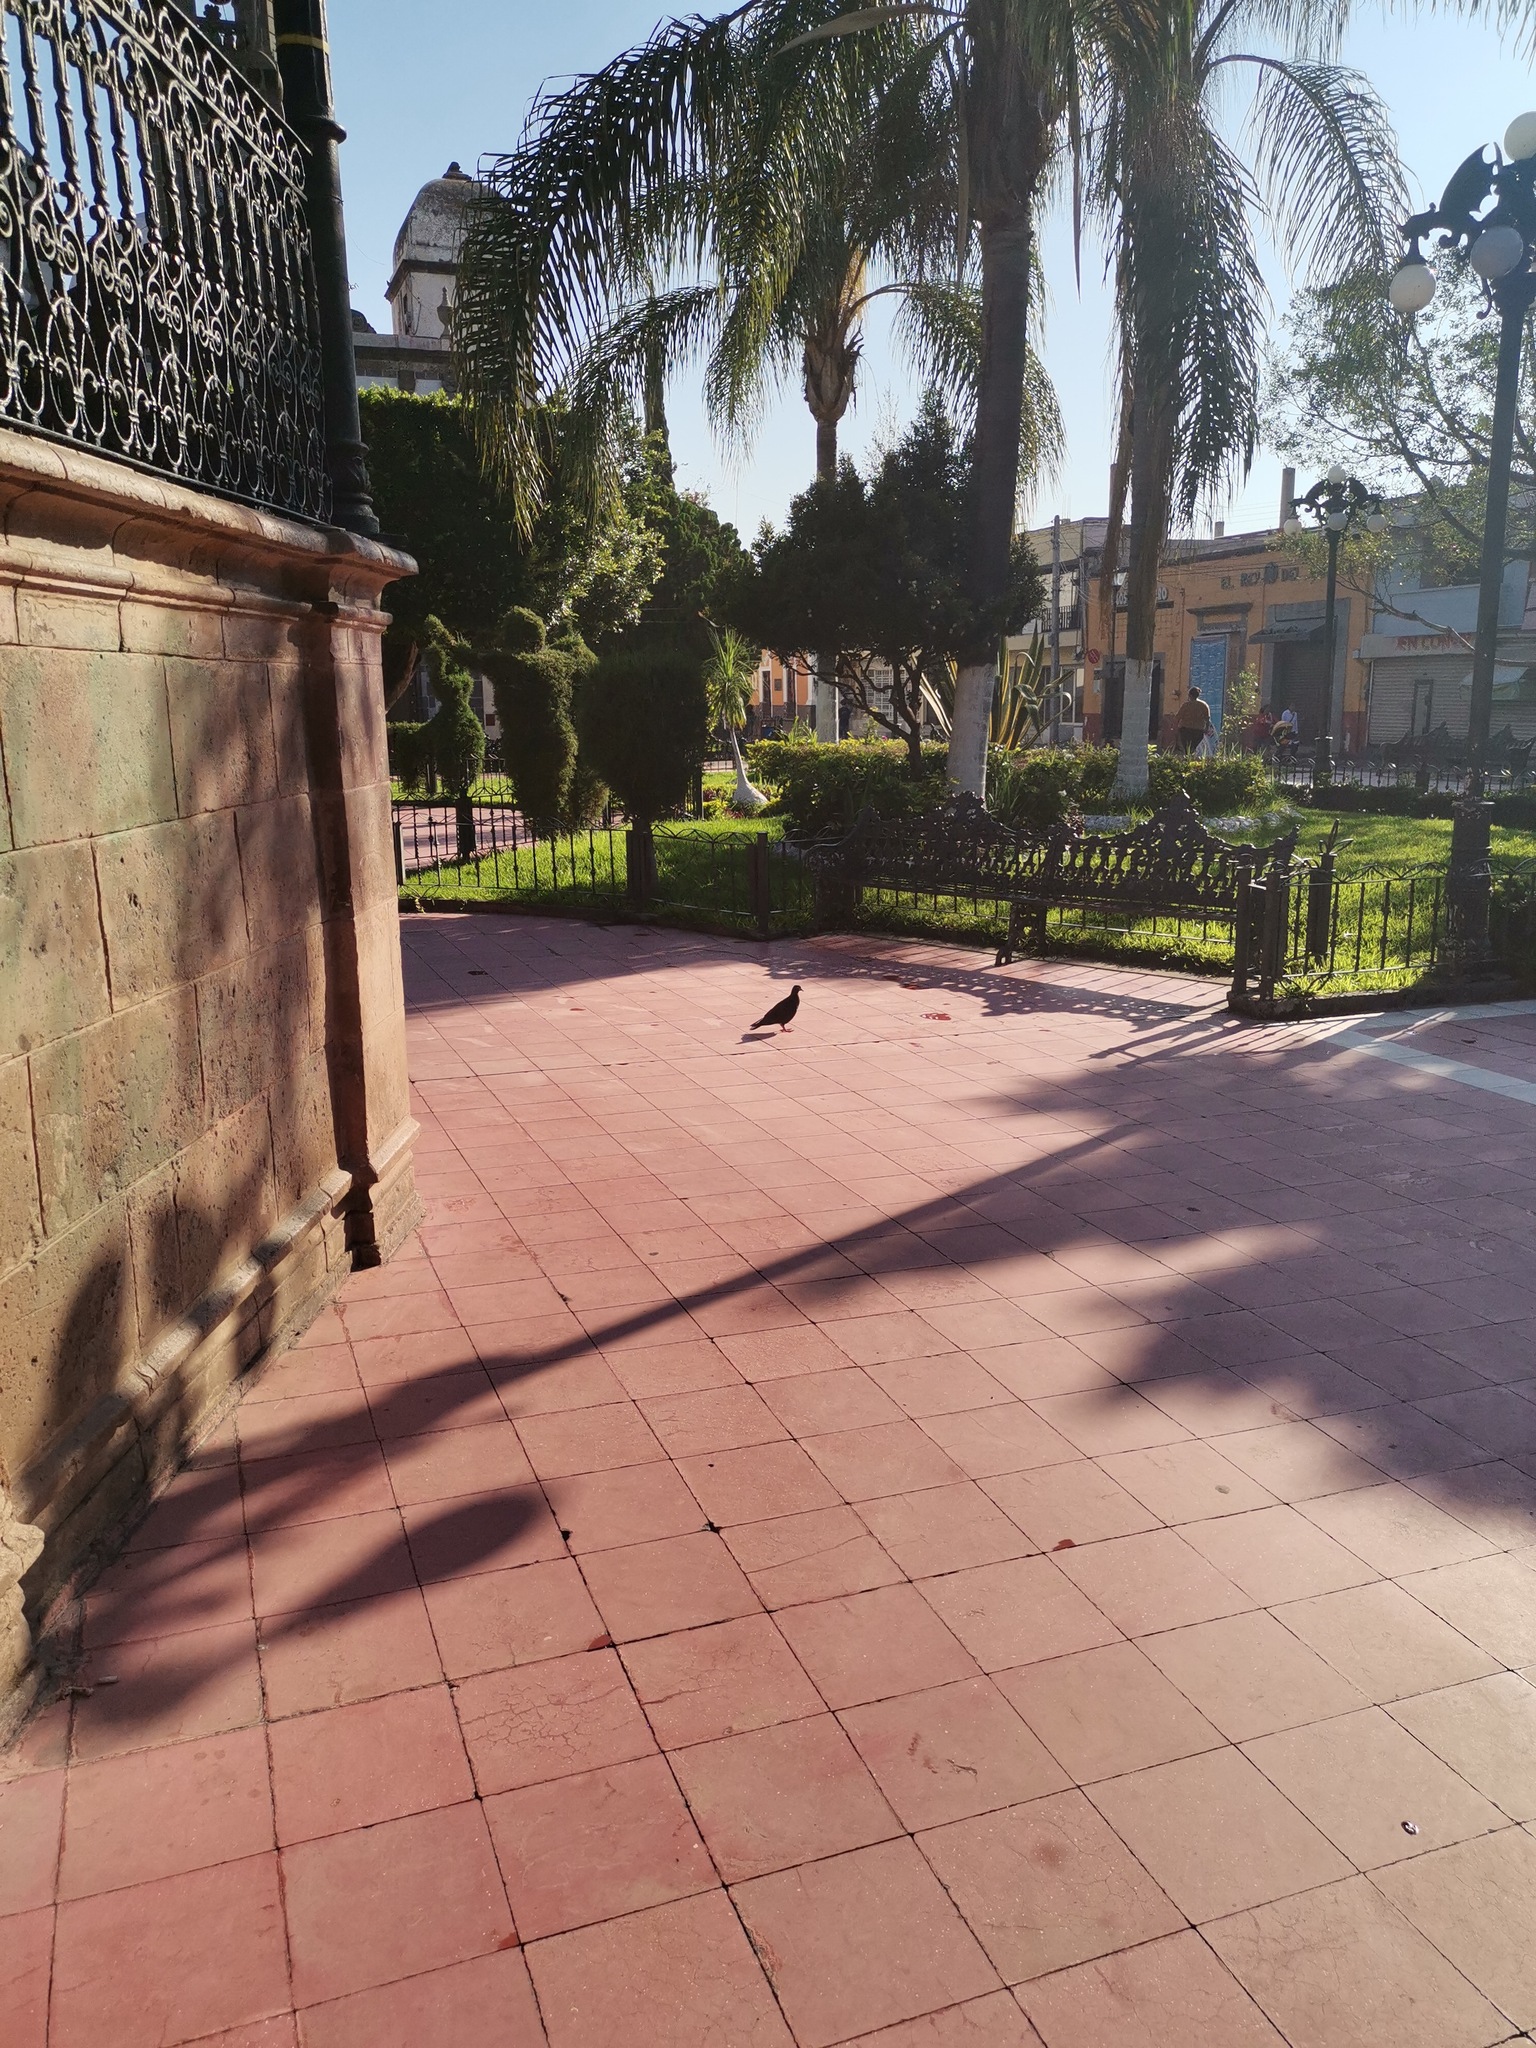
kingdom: Animalia
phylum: Chordata
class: Aves
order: Columbiformes
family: Columbidae
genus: Columba
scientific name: Columba livia
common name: Rock pigeon
